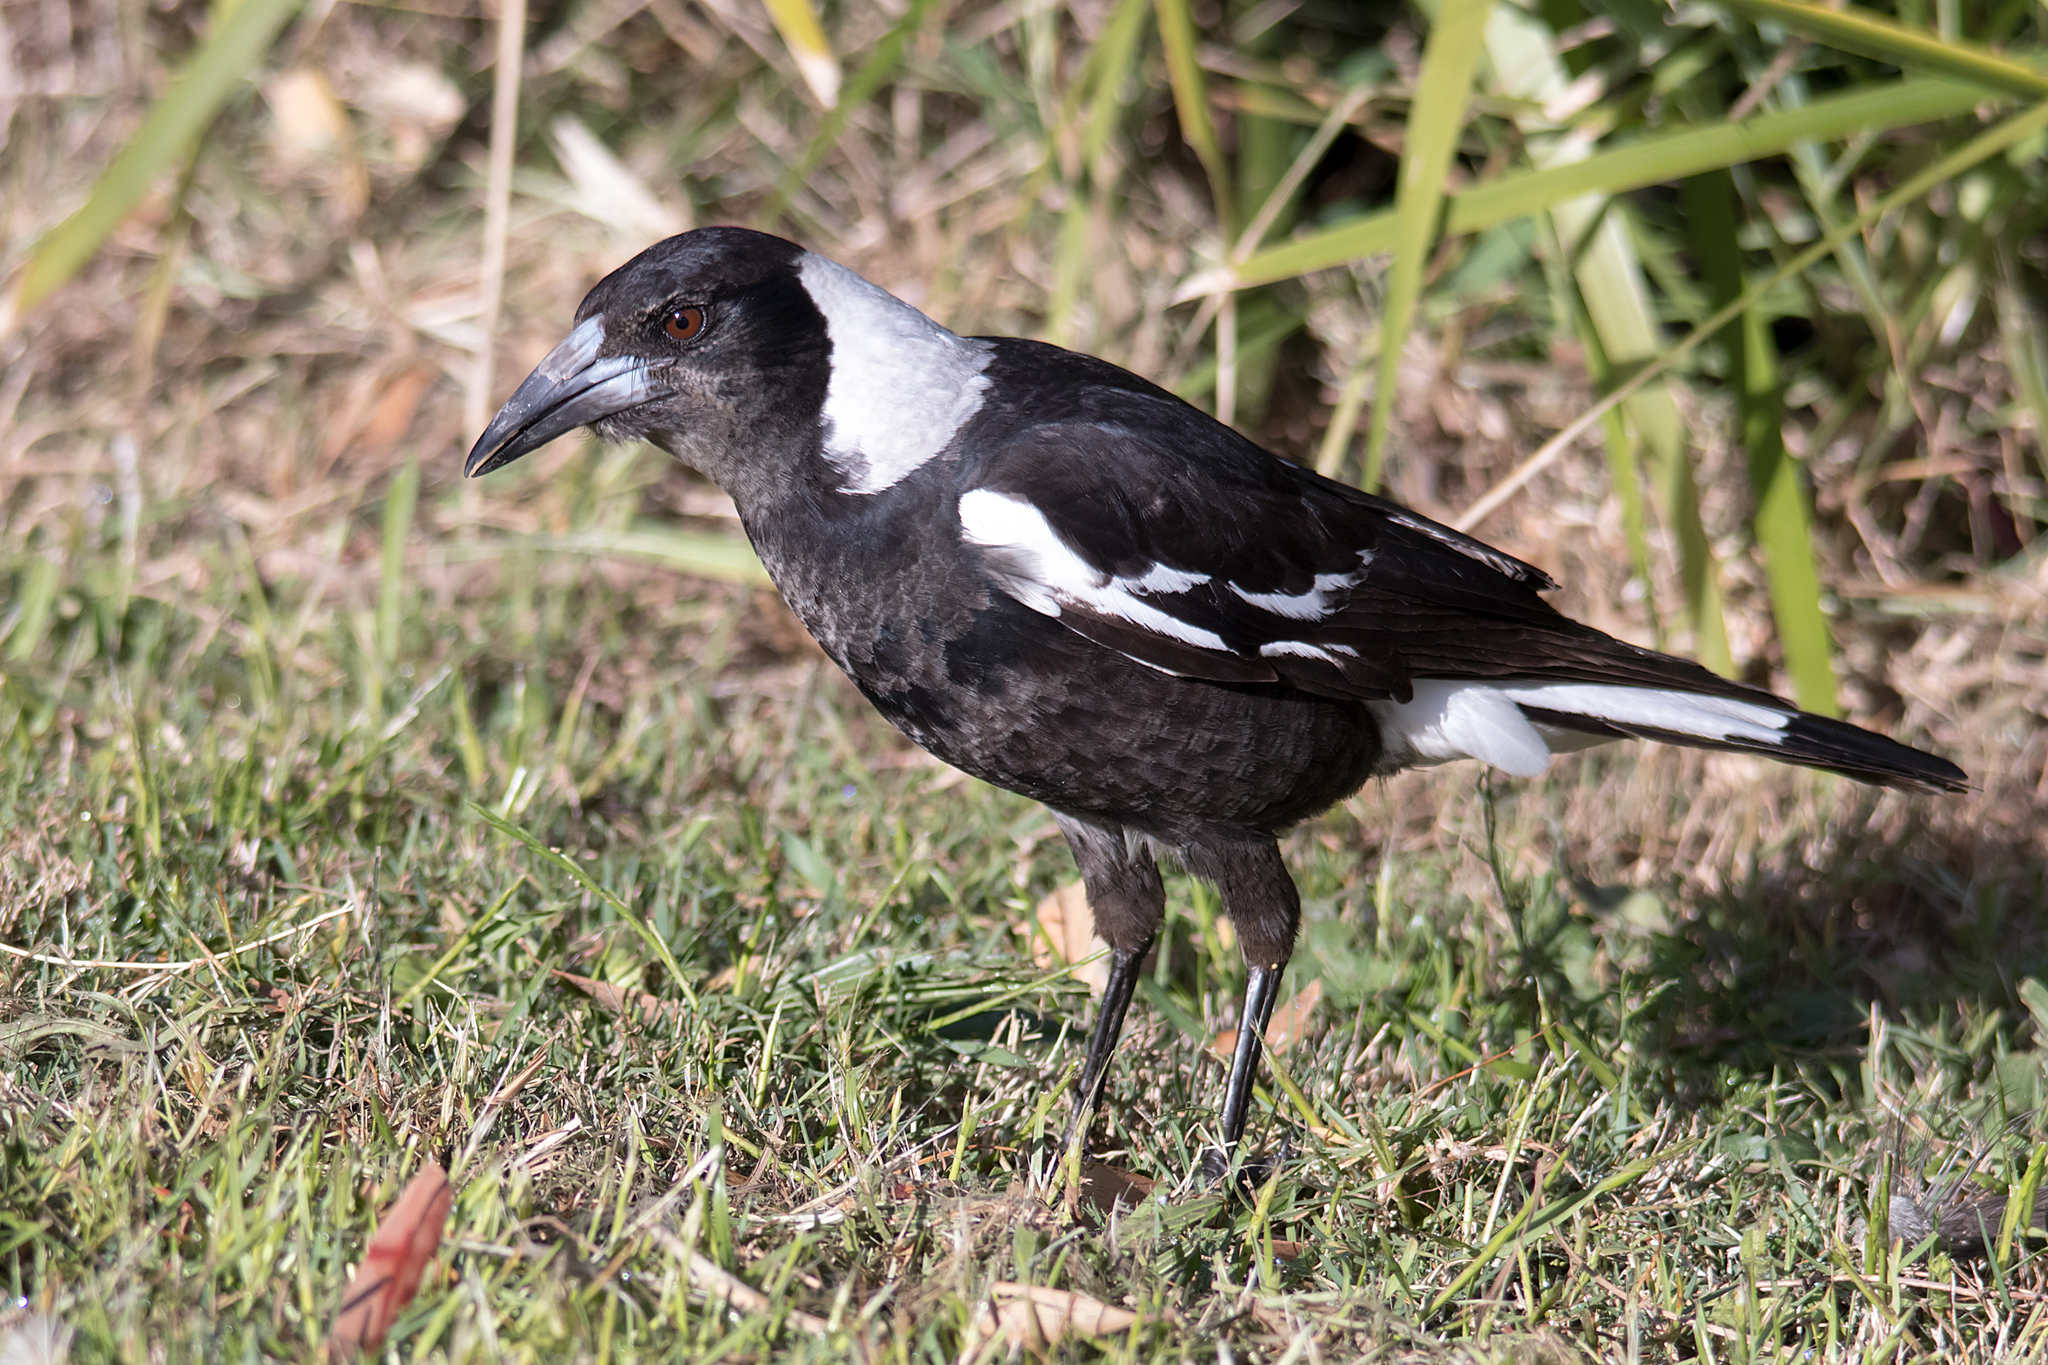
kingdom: Animalia
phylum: Chordata
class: Aves
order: Passeriformes
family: Cracticidae
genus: Gymnorhina
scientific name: Gymnorhina tibicen
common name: Australian magpie
